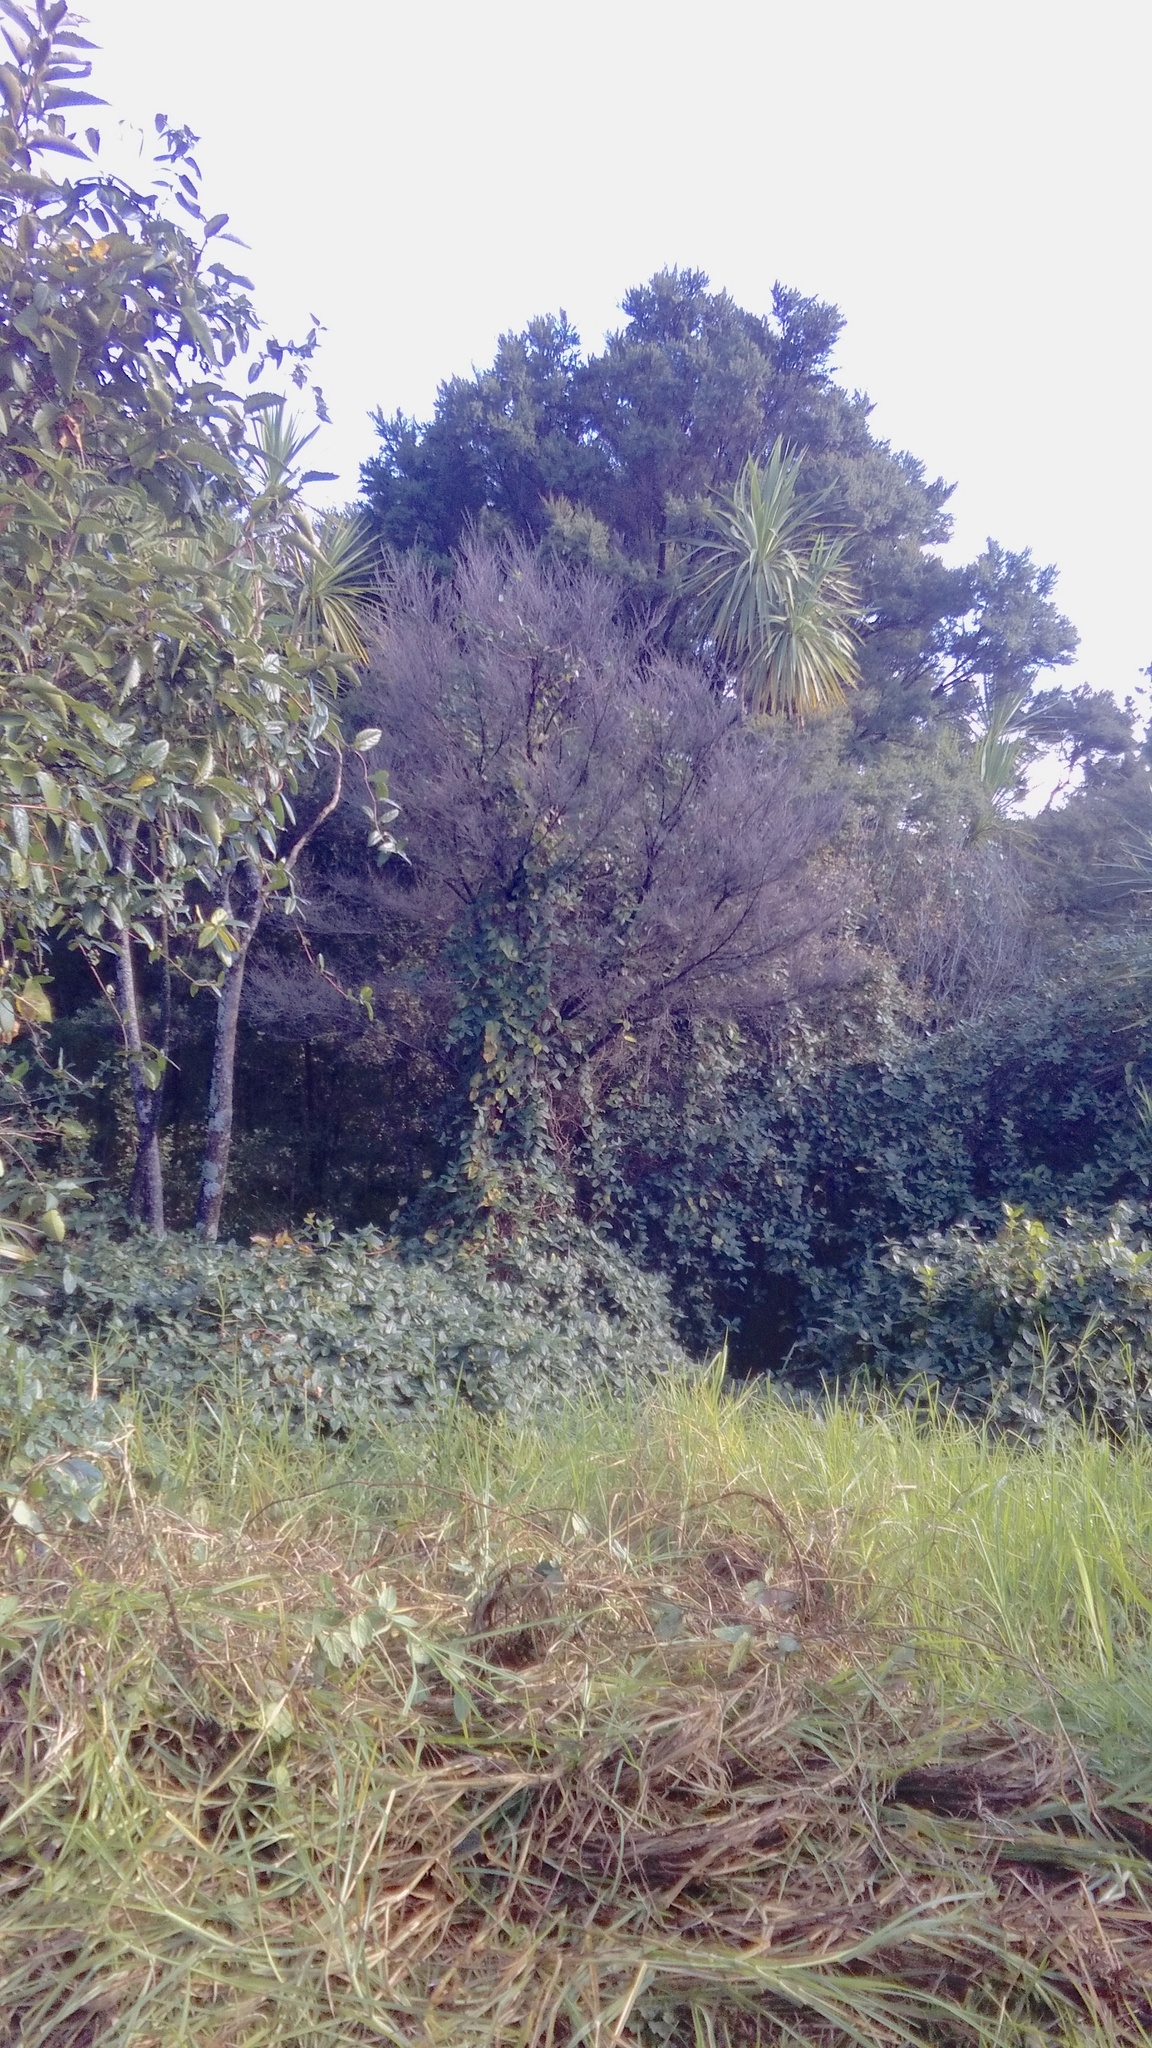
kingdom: Plantae
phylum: Tracheophyta
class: Liliopsida
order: Poales
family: Poaceae
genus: Cenchrus
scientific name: Cenchrus clandestinus
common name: Kikuyugrass
